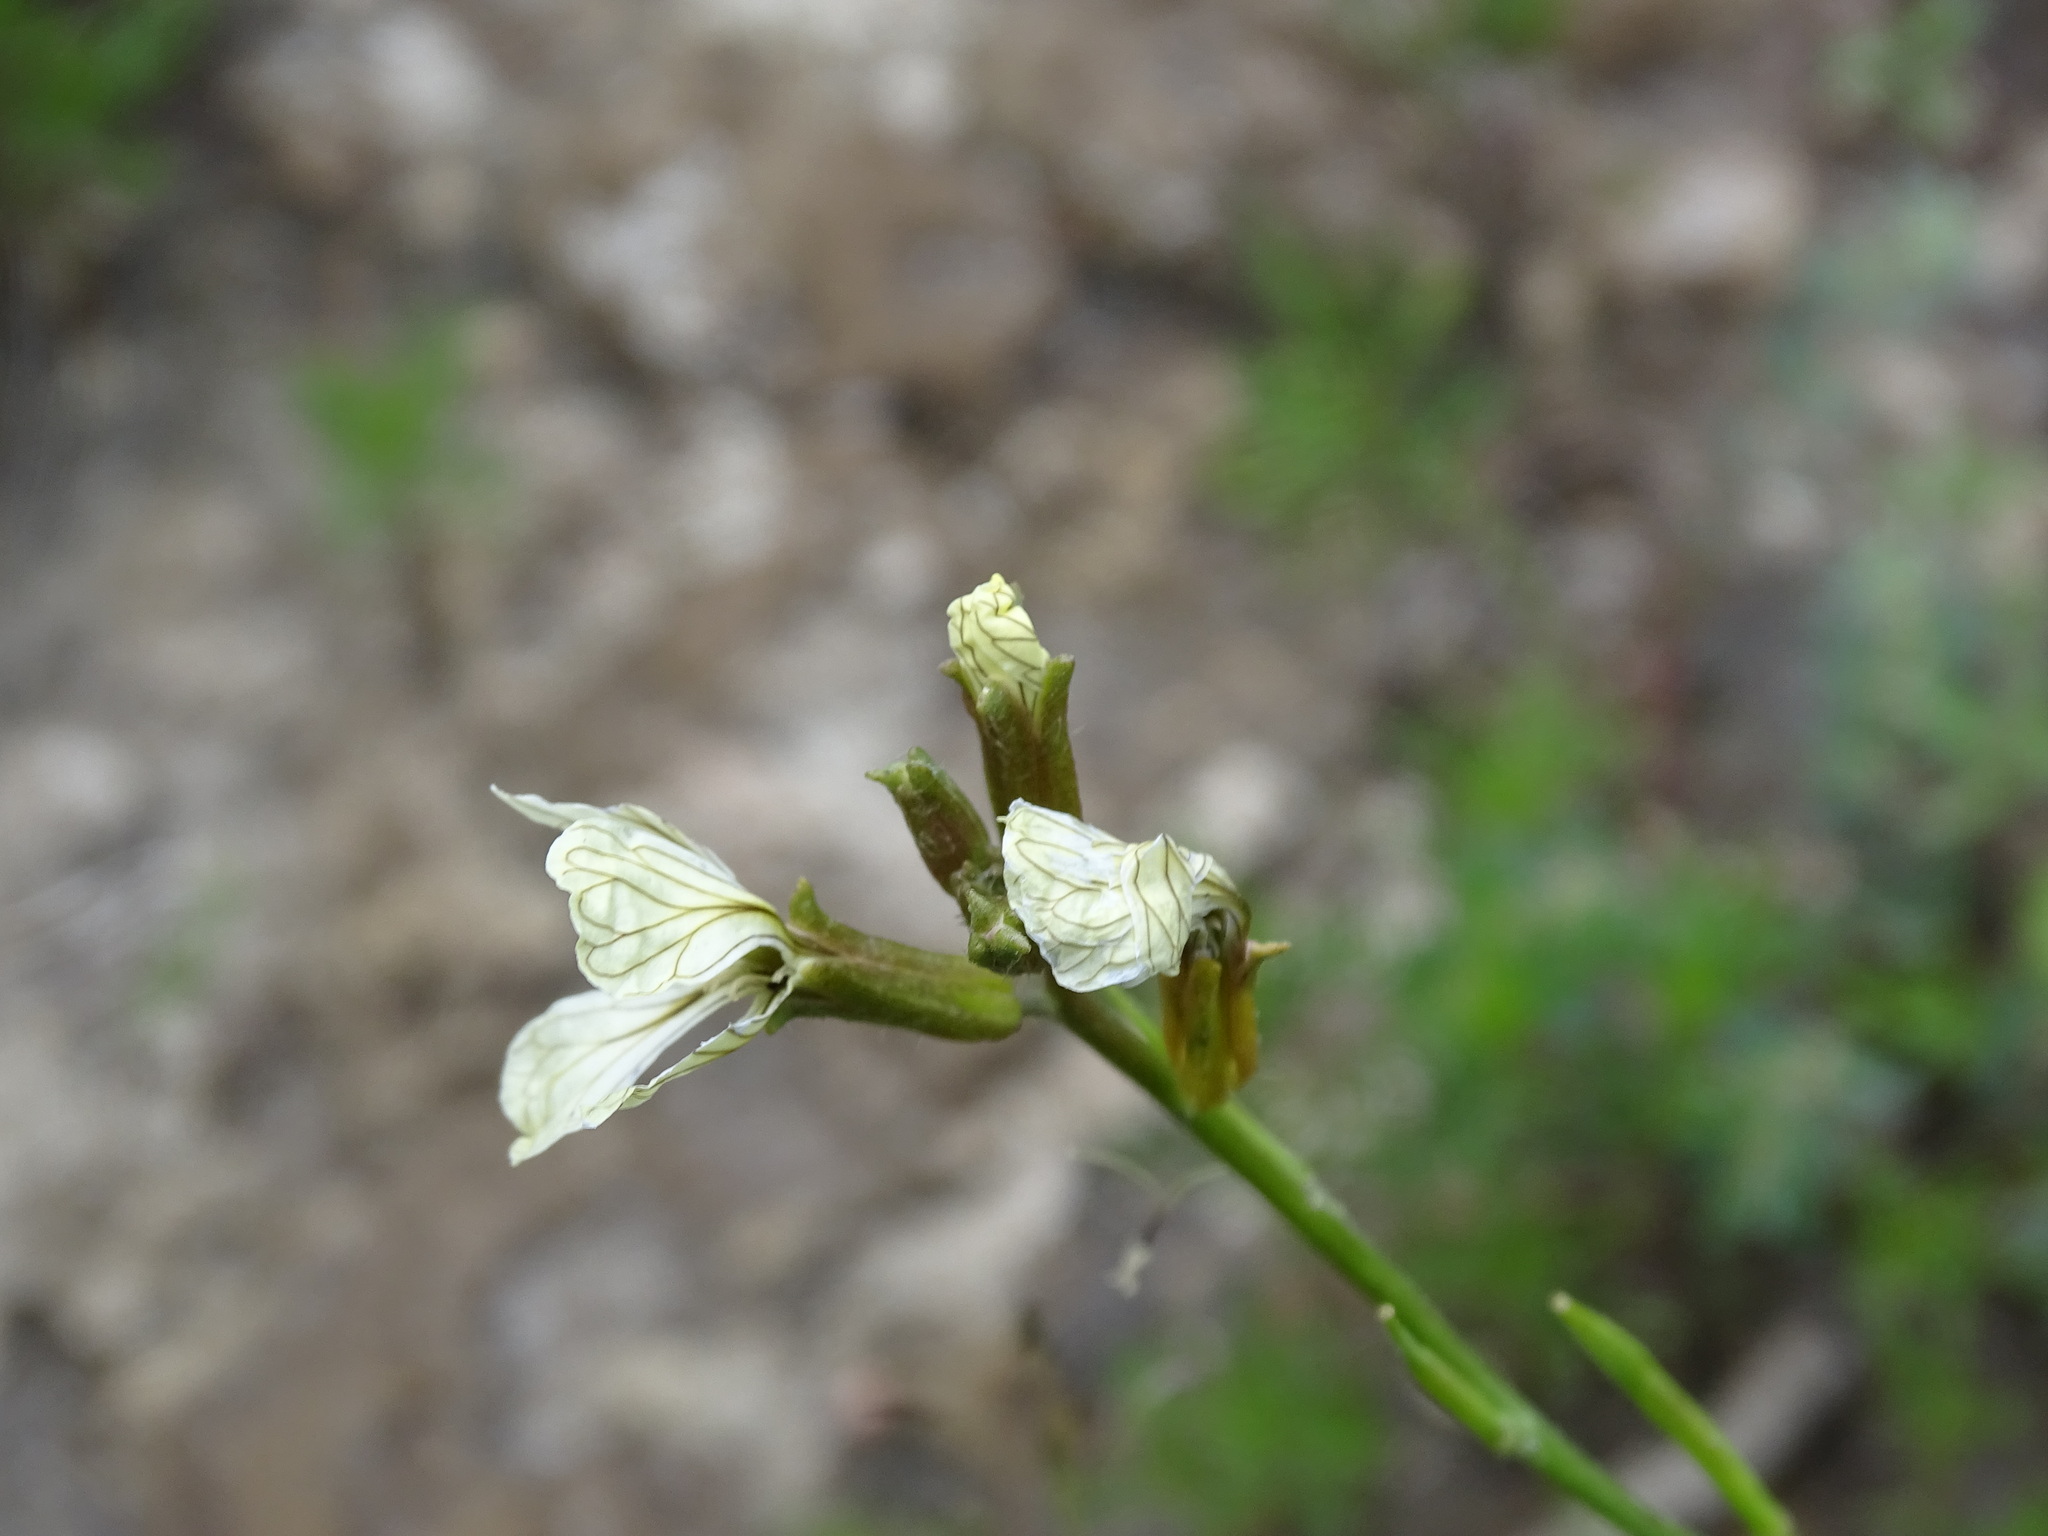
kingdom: Plantae
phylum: Tracheophyta
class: Magnoliopsida
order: Brassicales
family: Brassicaceae
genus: Raphanus
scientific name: Raphanus raphanistrum
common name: Wild radish
